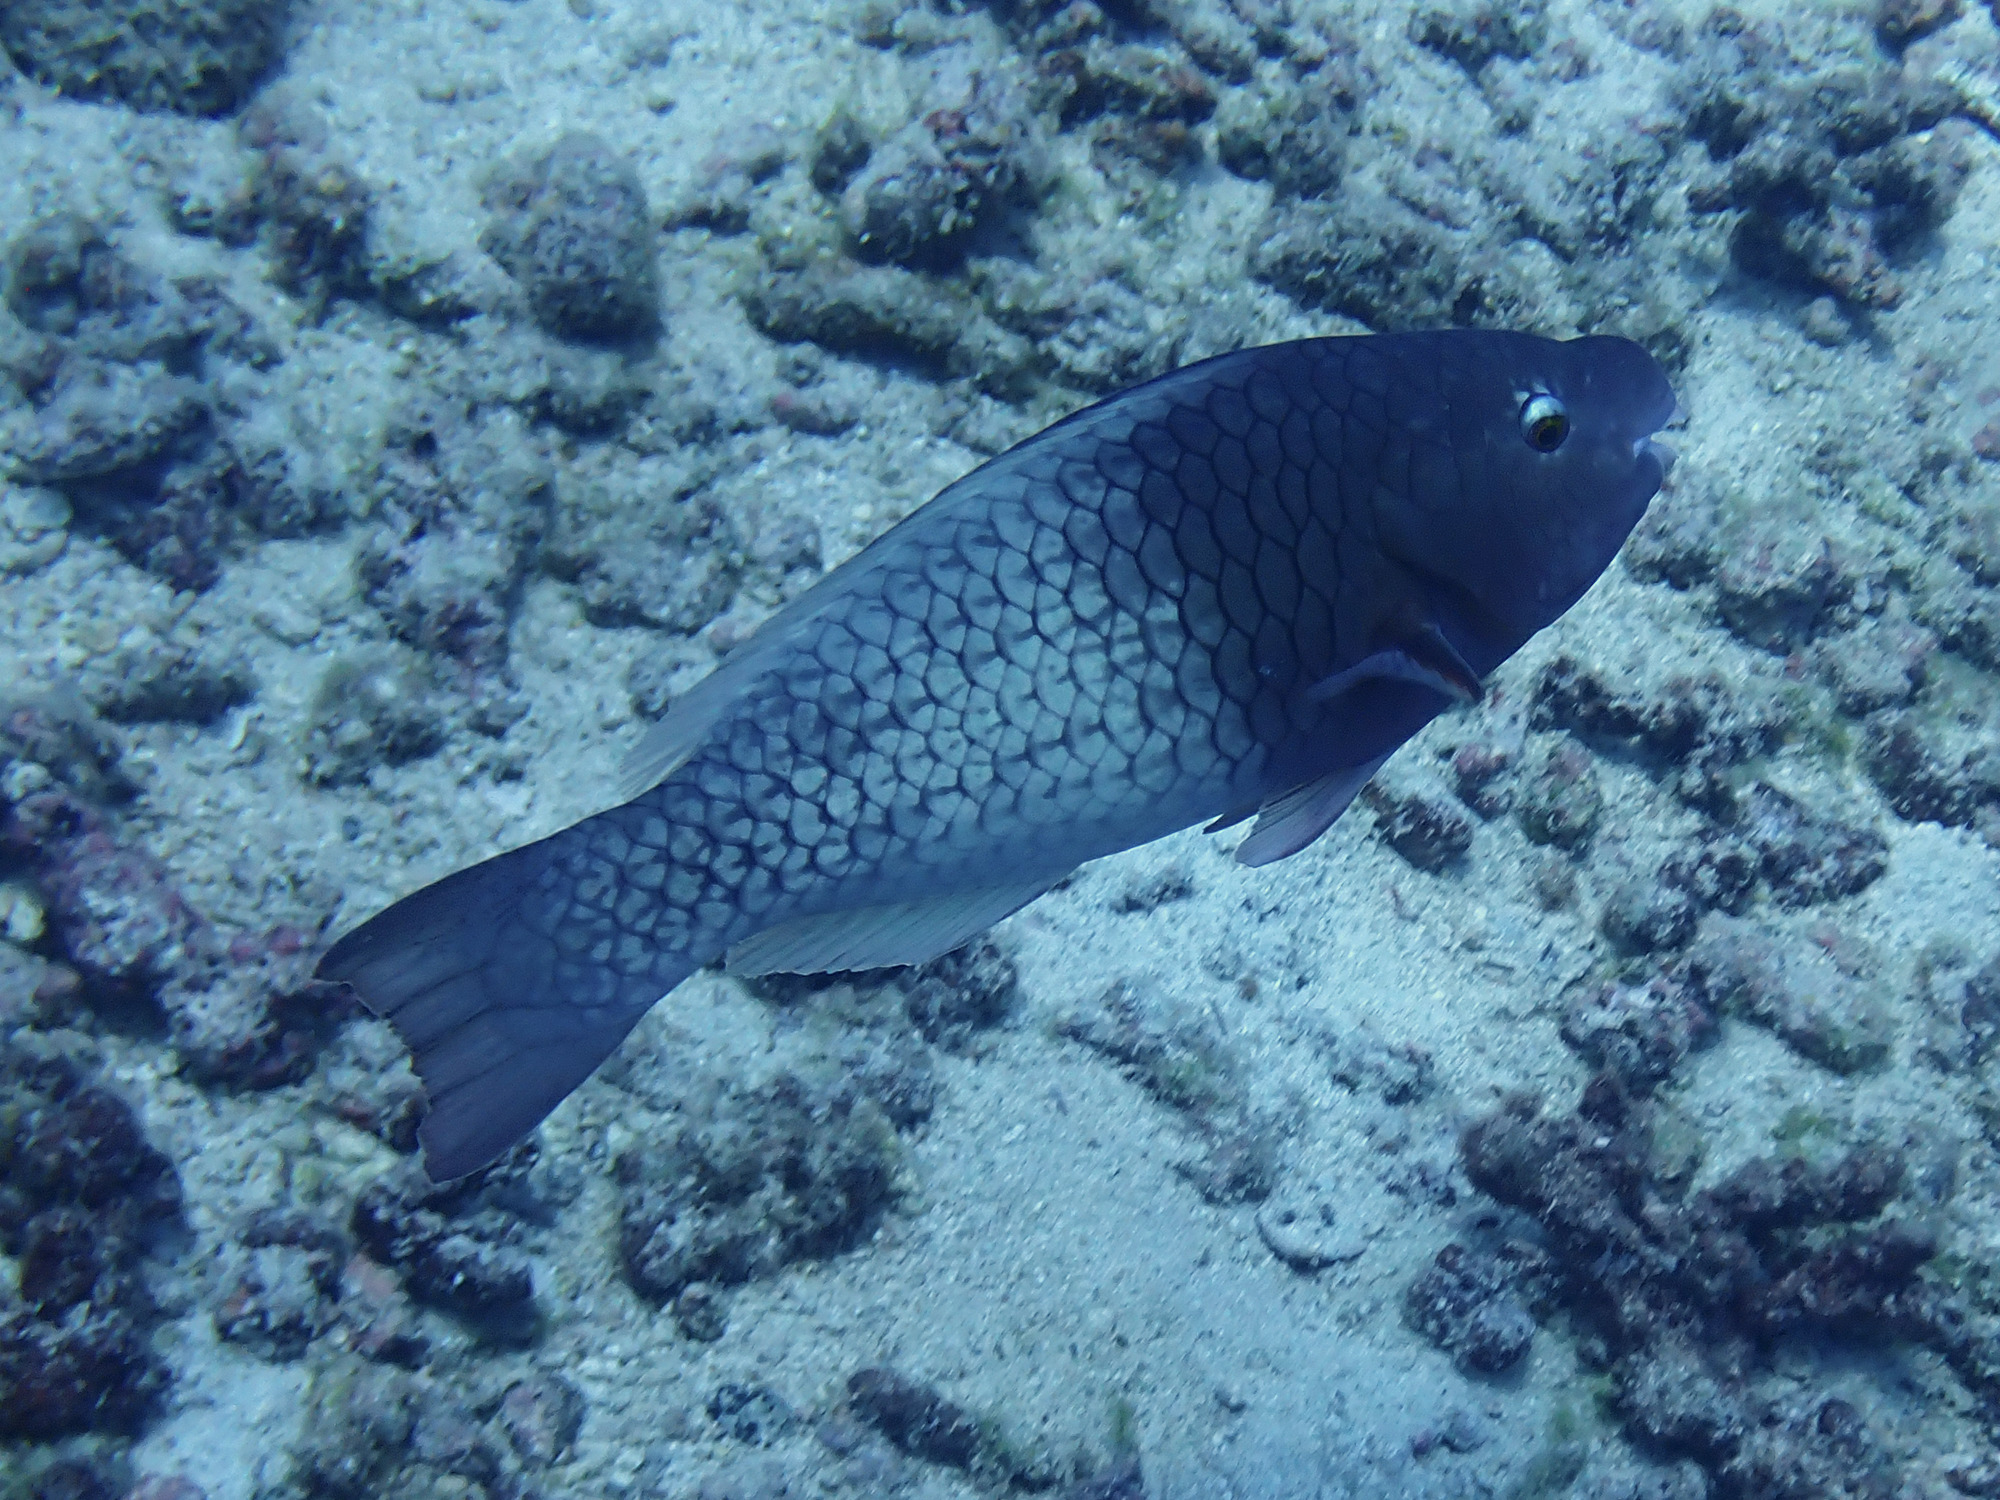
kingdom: Animalia
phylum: Chordata
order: Perciformes
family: Scaridae
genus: Scarus
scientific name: Scarus rubroviolaceus
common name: Ember parrotfish
